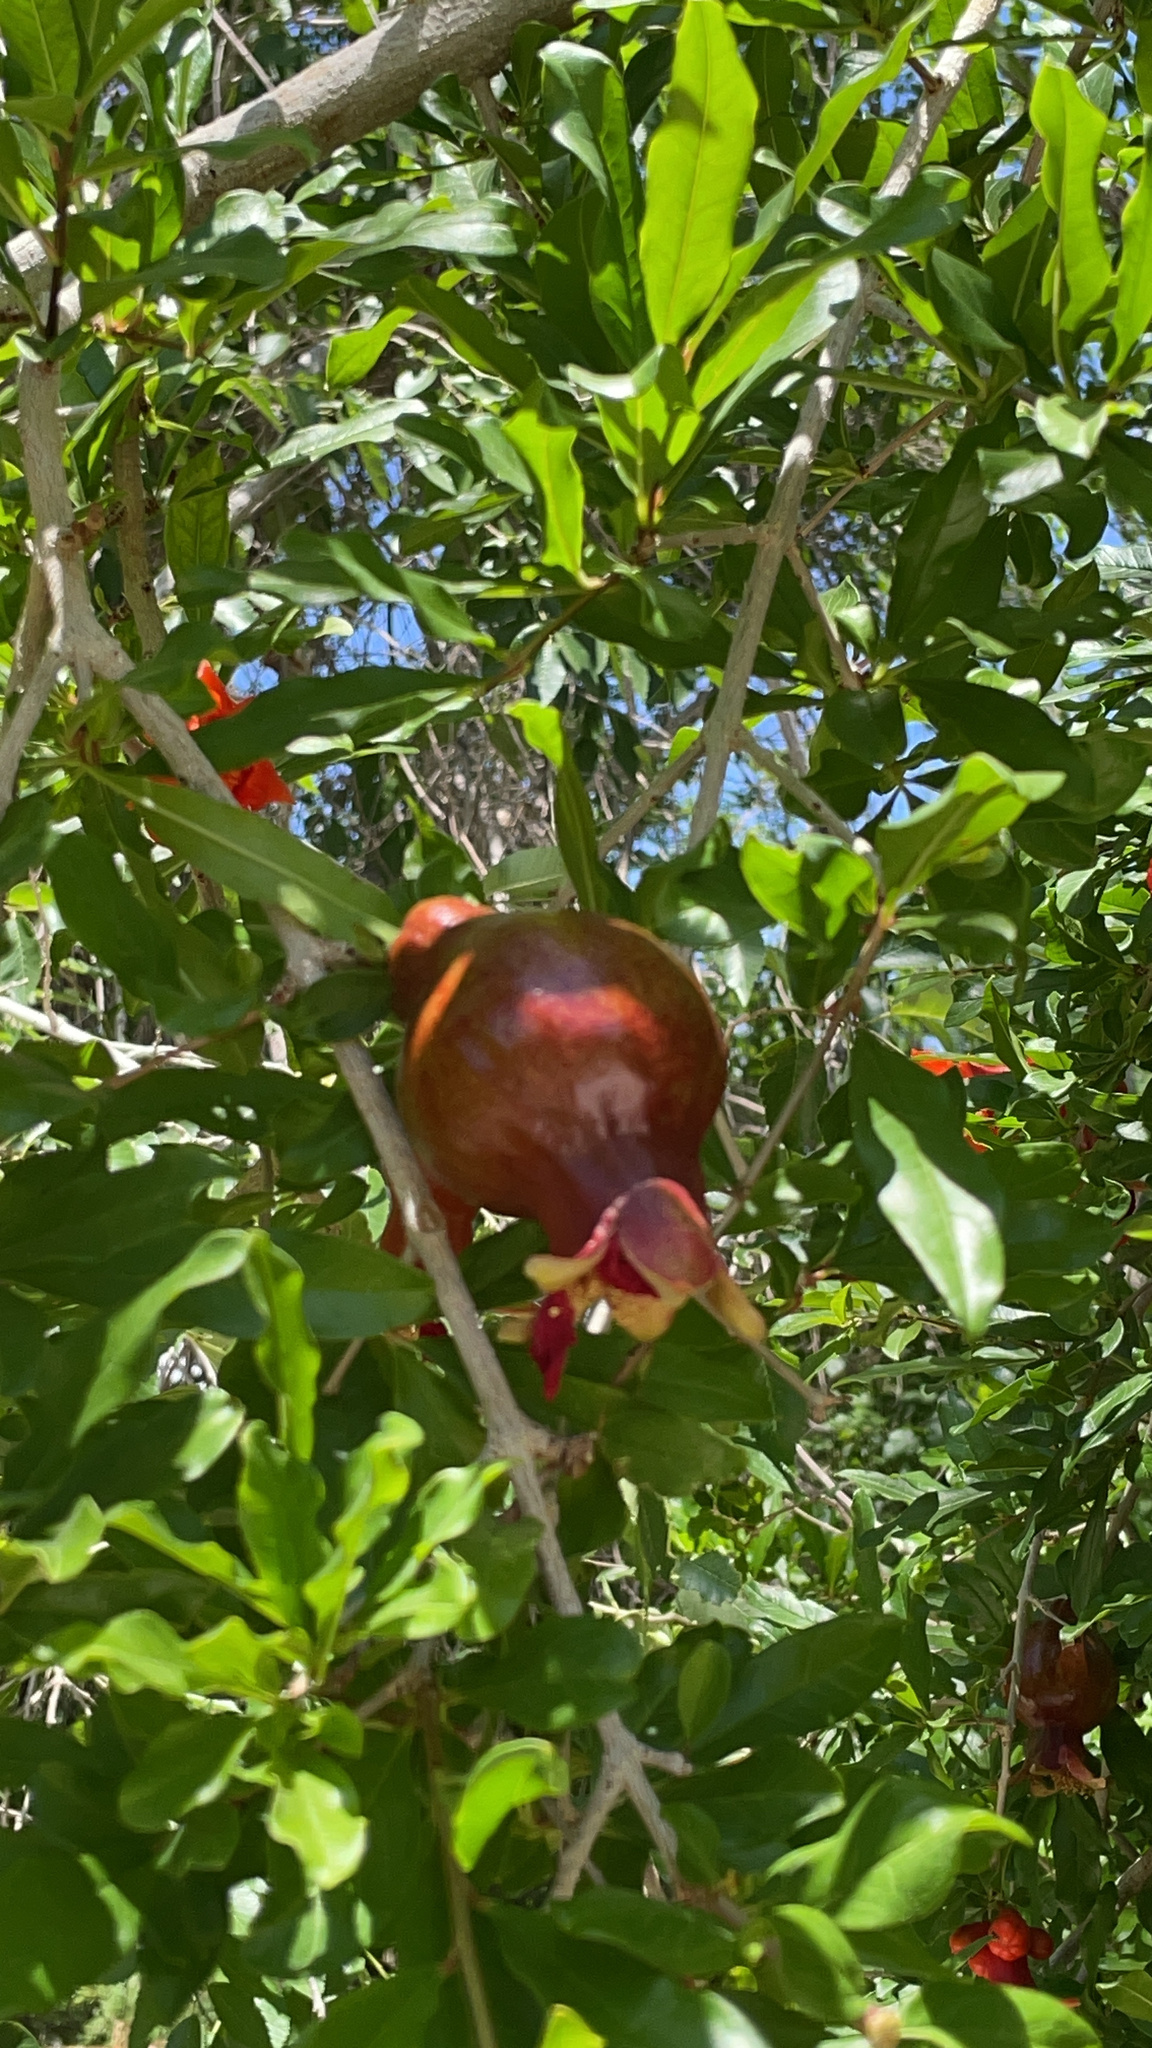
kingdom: Plantae
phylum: Tracheophyta
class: Magnoliopsida
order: Myrtales
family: Lythraceae
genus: Punica
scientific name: Punica granatum
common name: Pomegranate
